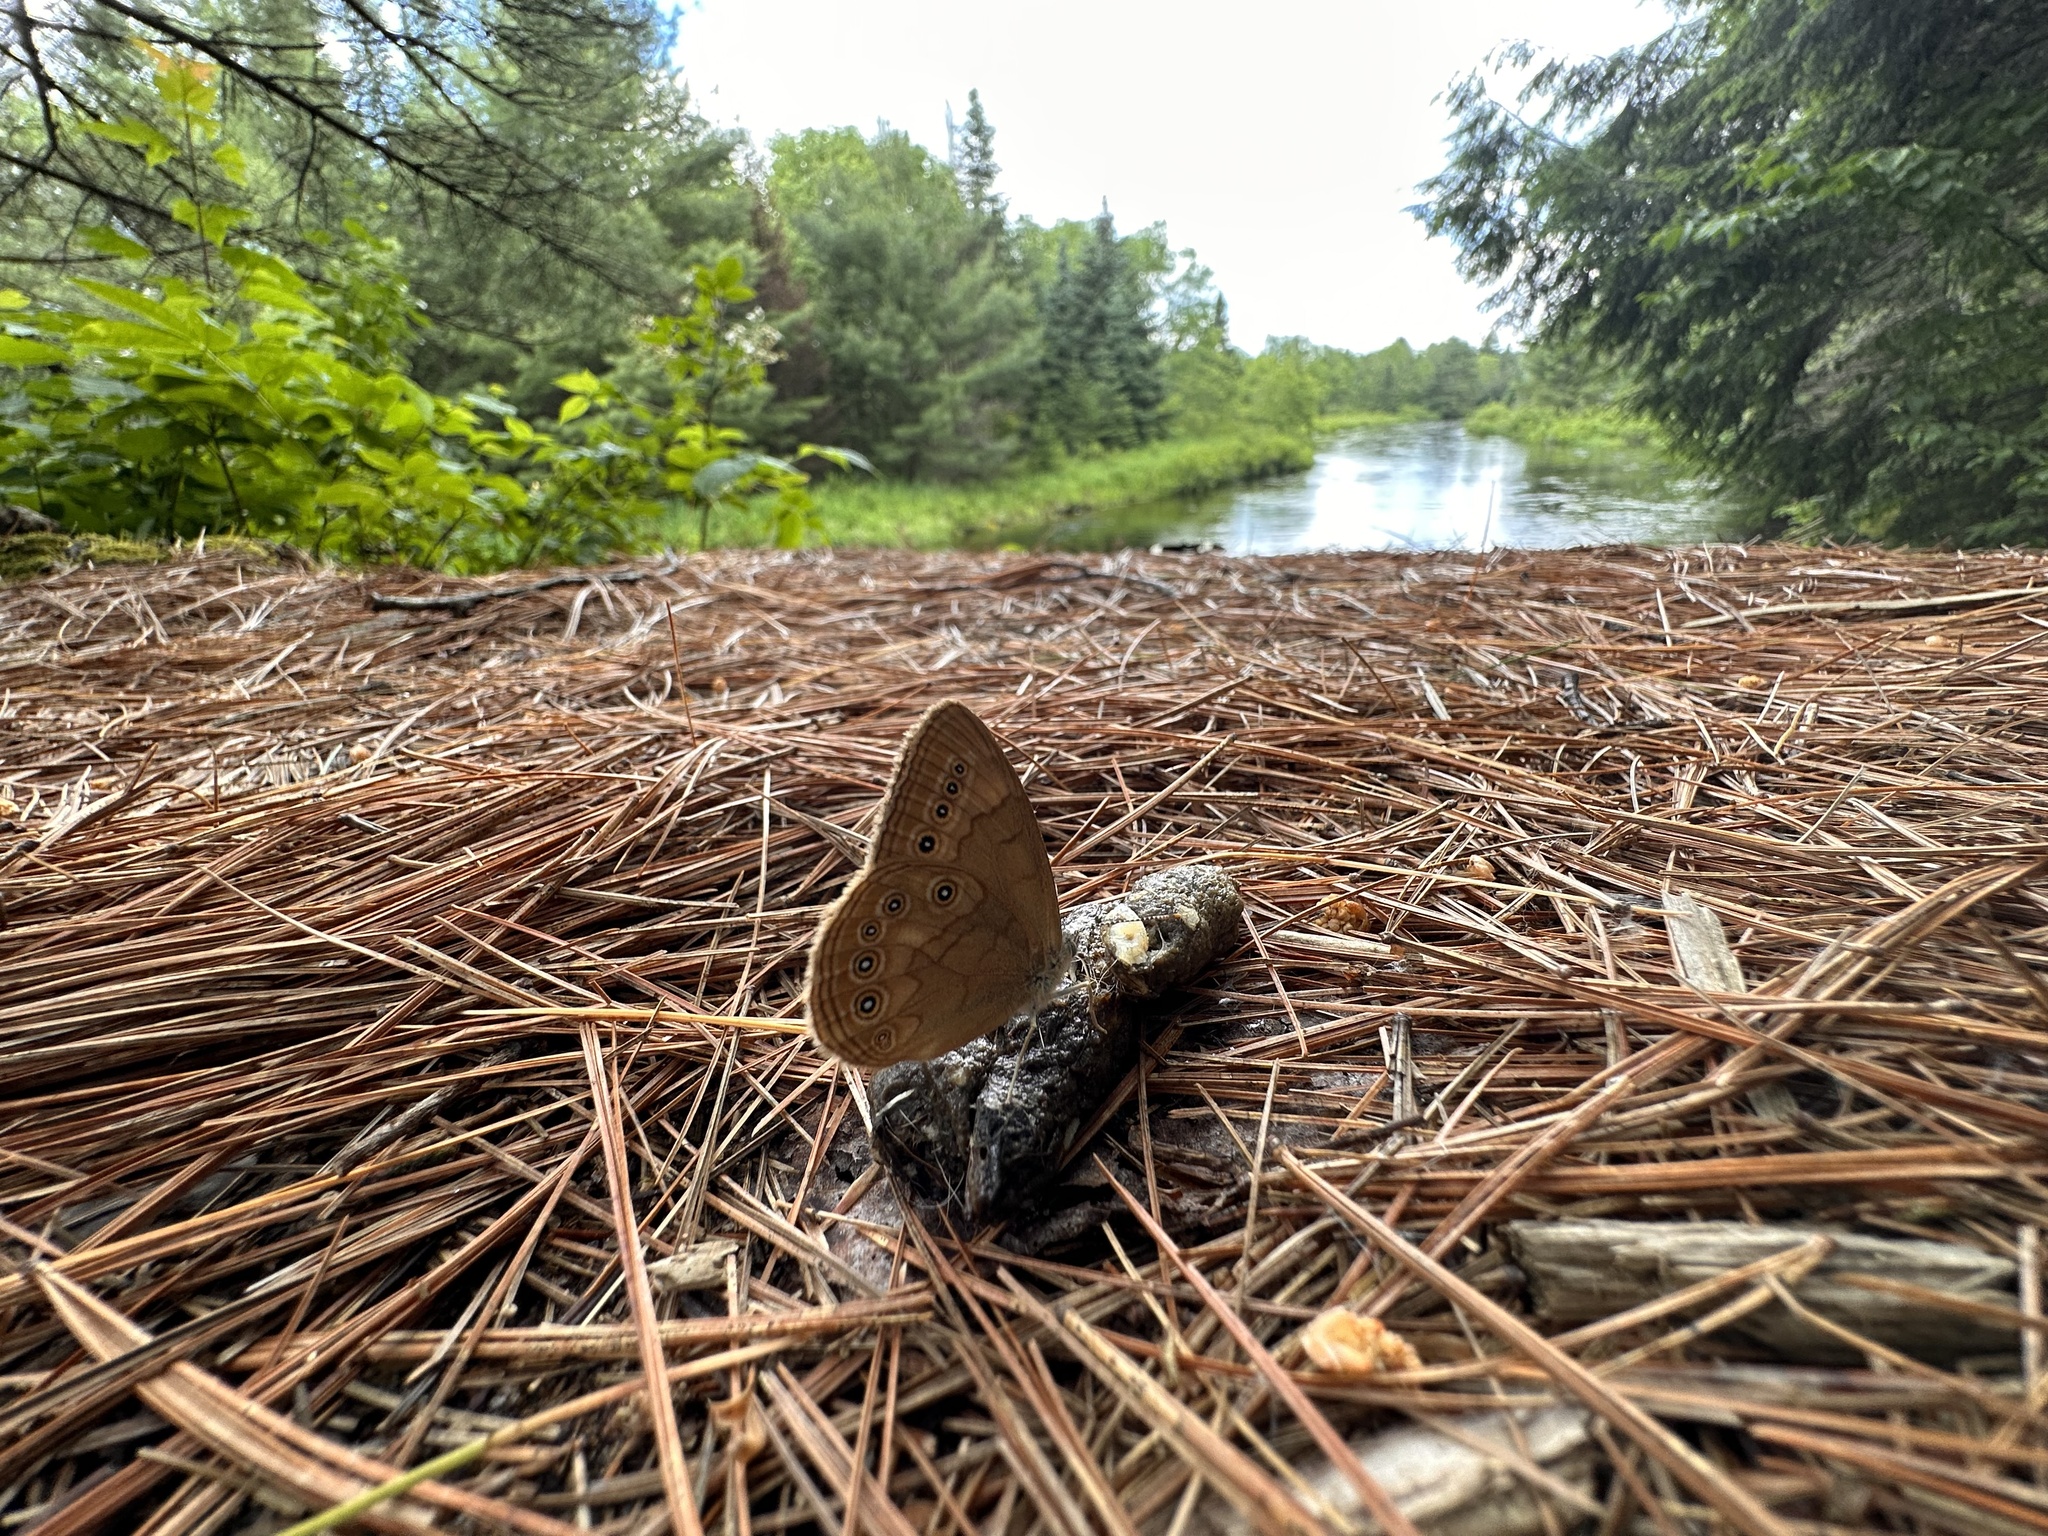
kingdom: Animalia
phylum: Arthropoda
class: Insecta
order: Lepidoptera
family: Nymphalidae
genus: Lethe
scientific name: Lethe eurydice
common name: Eyed brown
